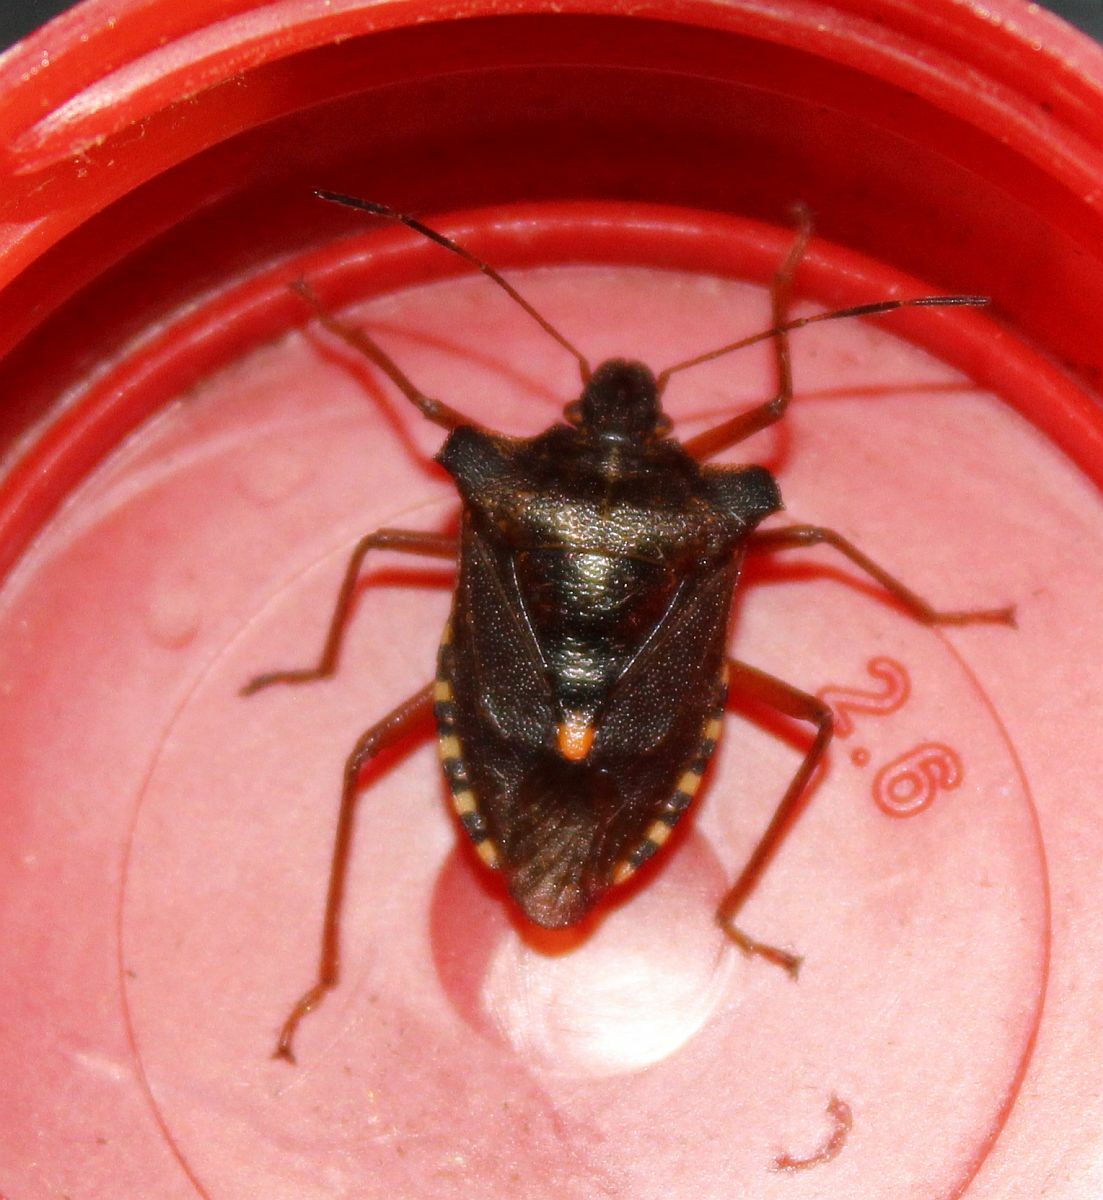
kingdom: Animalia
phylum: Arthropoda
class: Insecta
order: Hemiptera
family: Pentatomidae
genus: Pentatoma
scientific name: Pentatoma rufipes
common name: Forest bug
